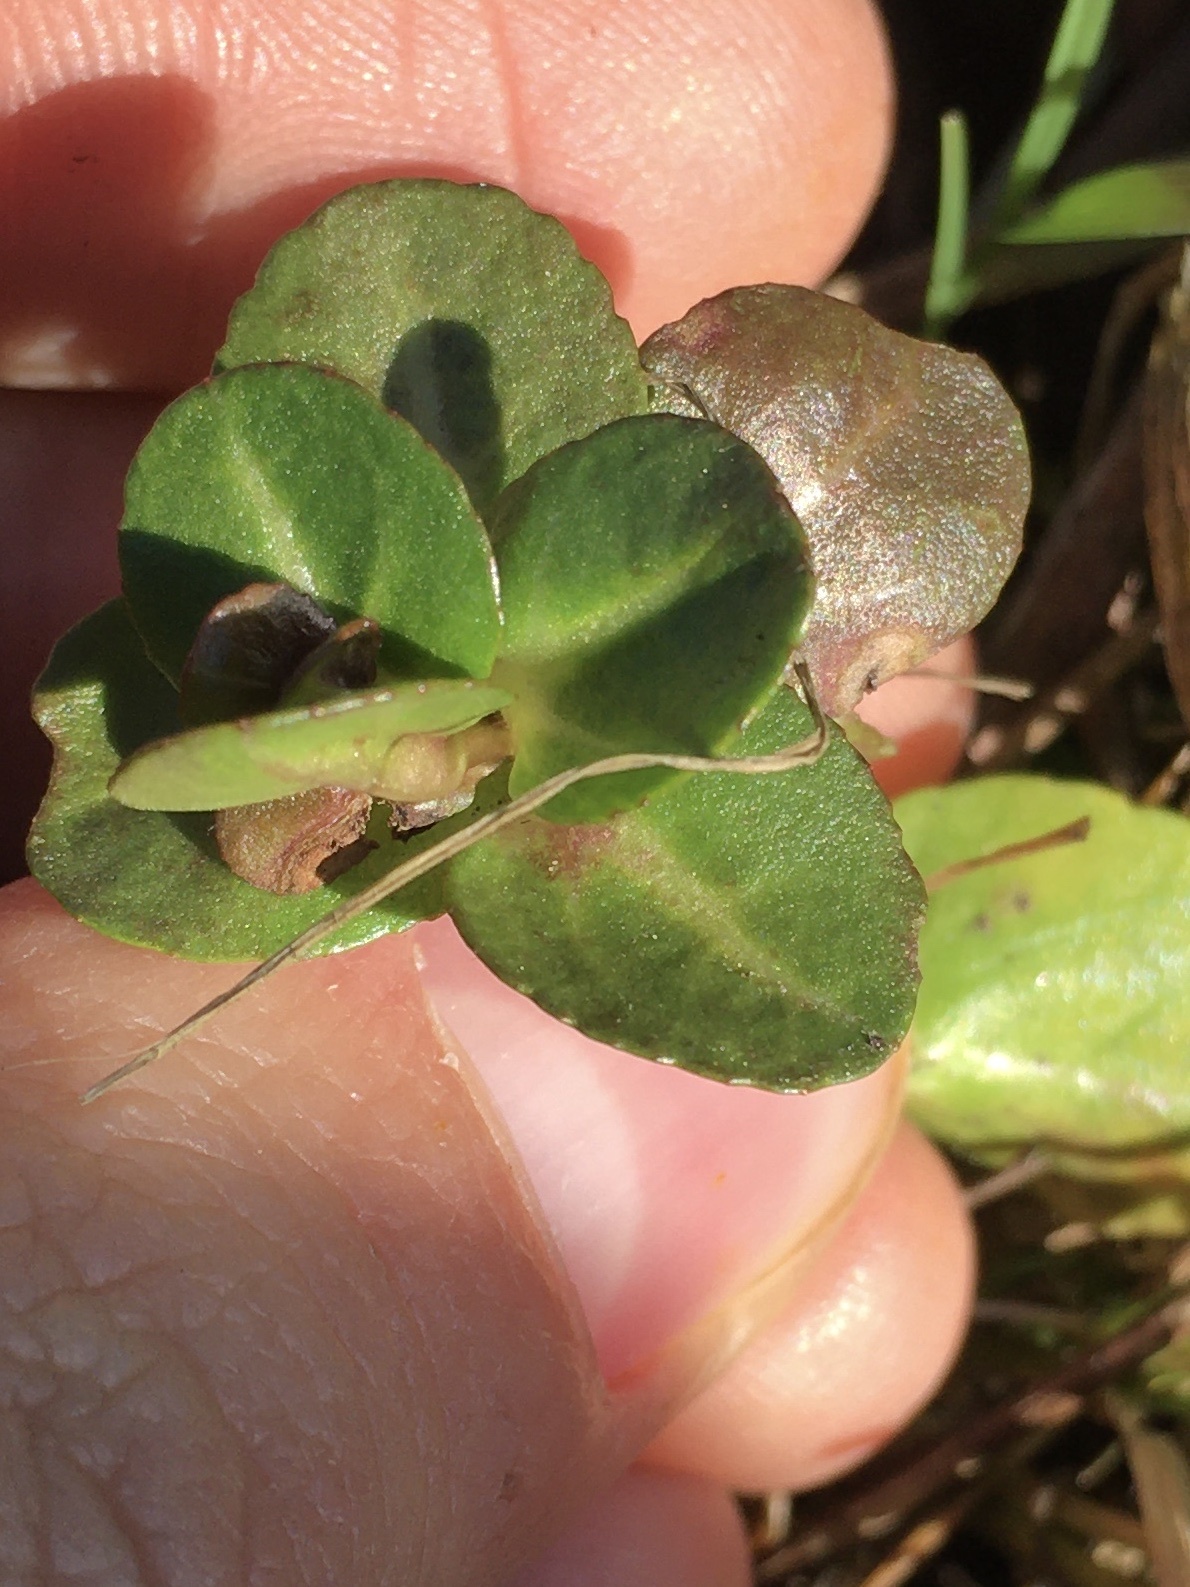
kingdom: Plantae
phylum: Tracheophyta
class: Magnoliopsida
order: Lamiales
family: Plantaginaceae
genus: Veronica
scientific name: Veronica beccabunga
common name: Brooklime
